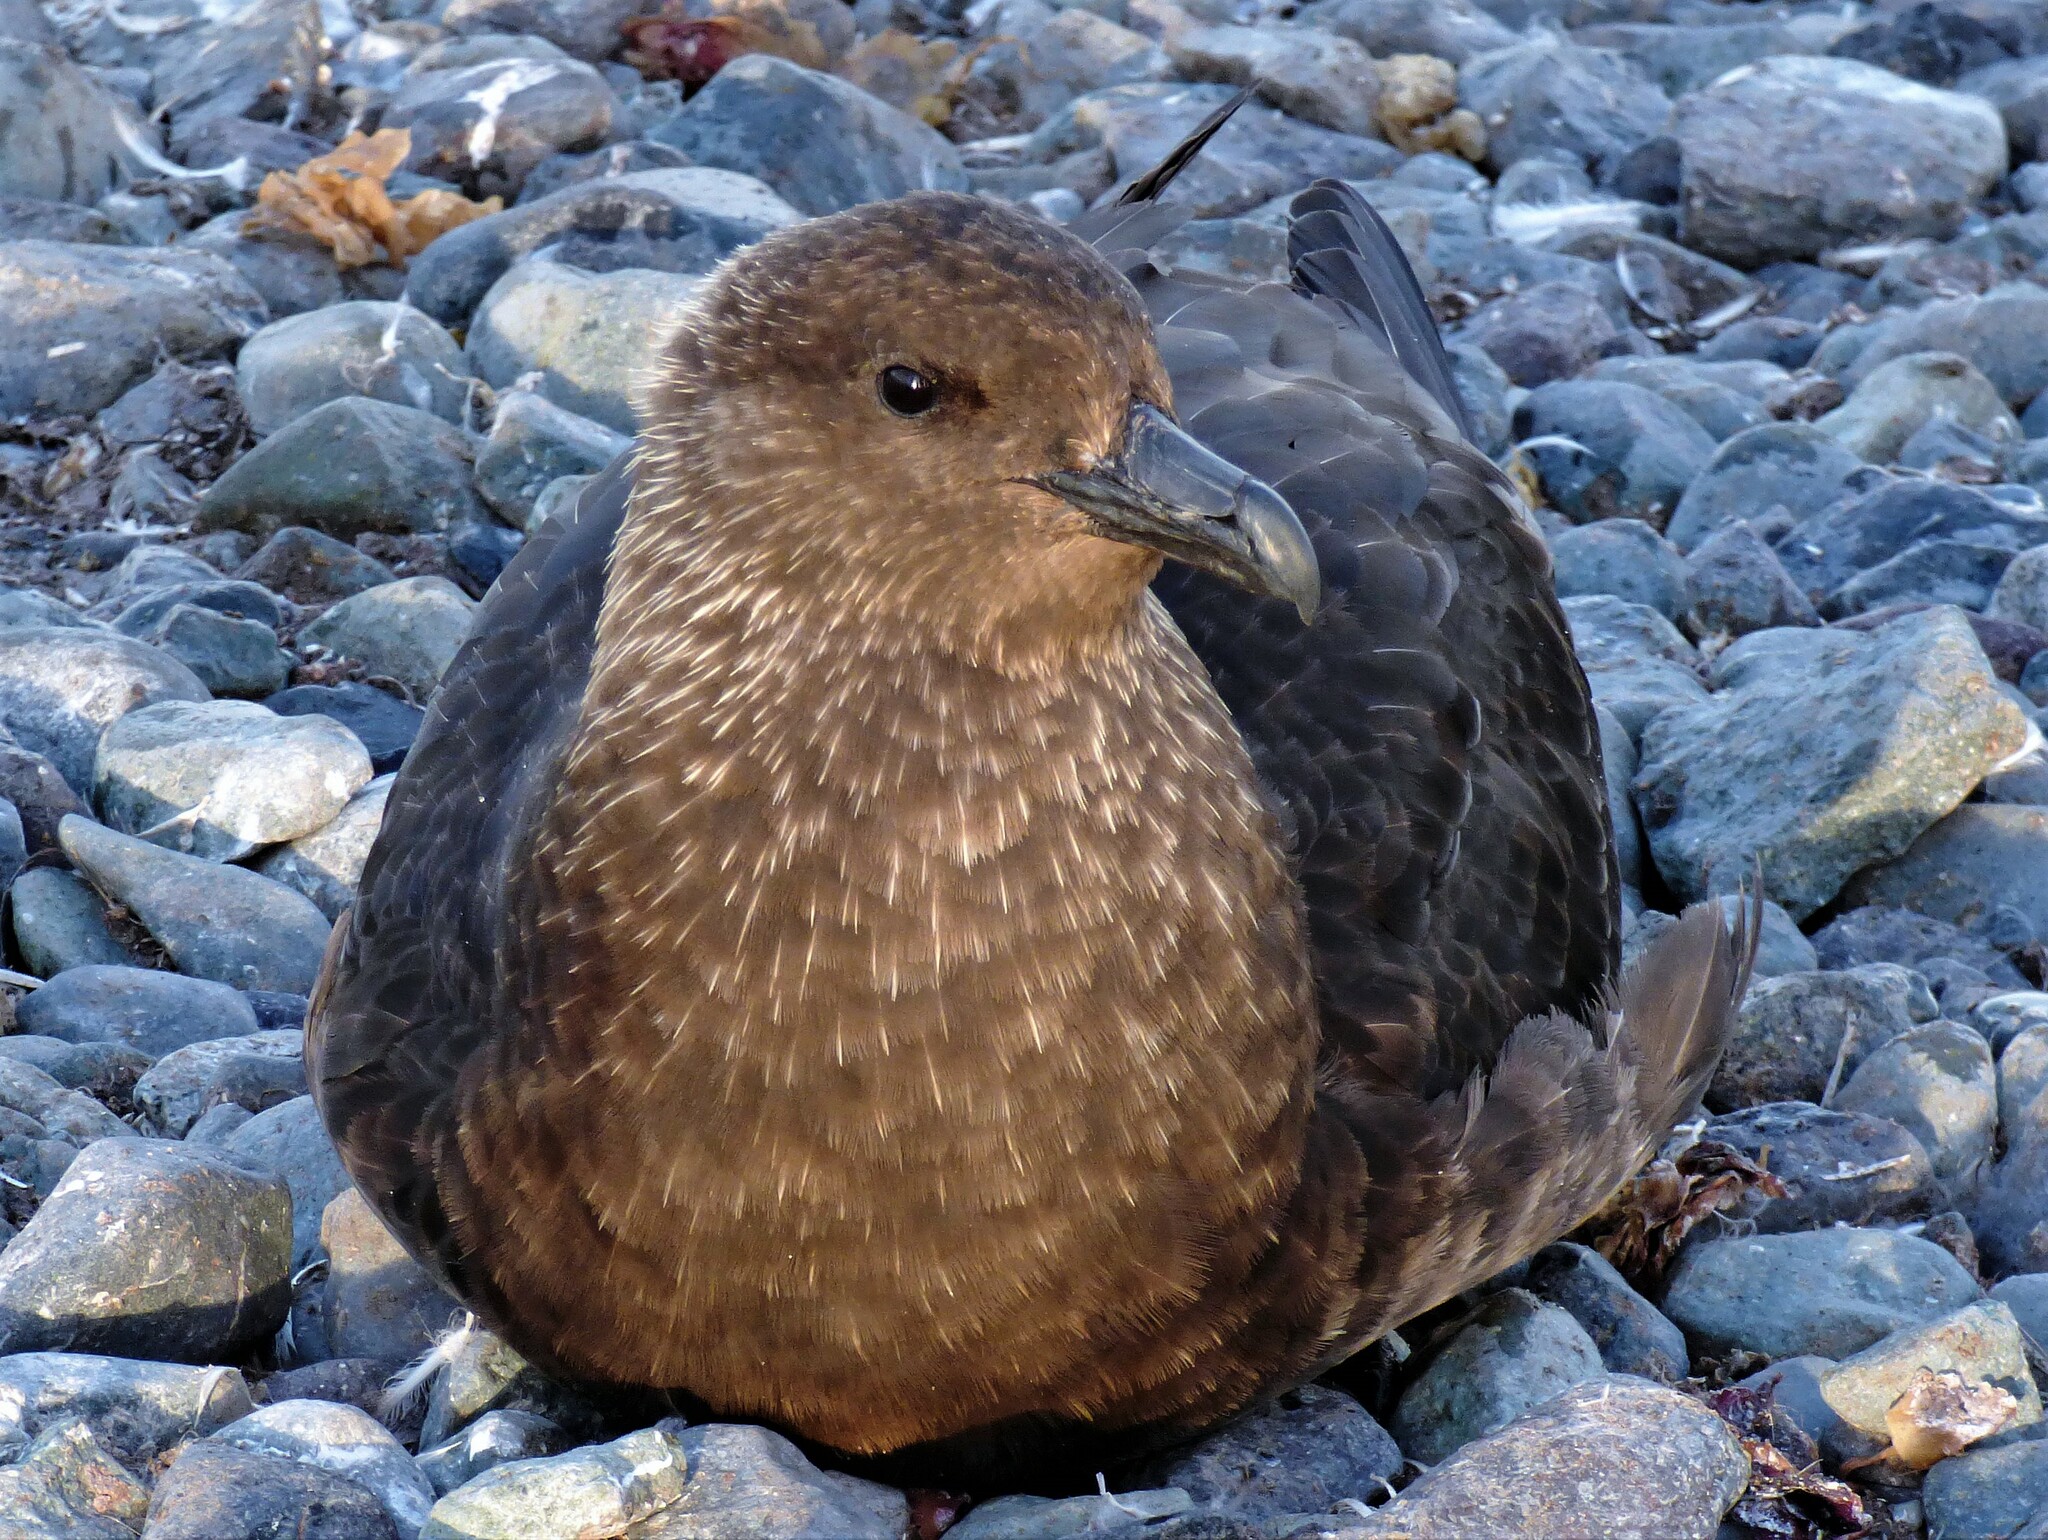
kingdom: Animalia
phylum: Chordata
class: Aves
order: Charadriiformes
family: Stercorariidae
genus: Stercorarius
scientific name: Stercorarius maccormicki
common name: South polar skua
